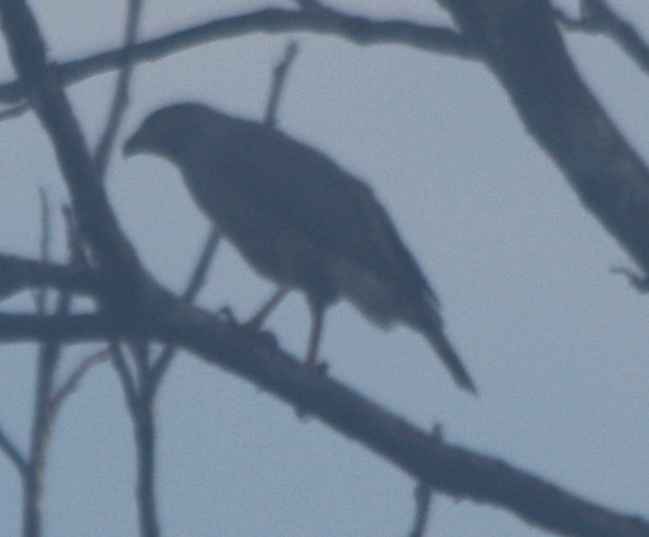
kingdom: Animalia
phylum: Chordata
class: Aves
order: Accipitriformes
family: Accipitridae
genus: Rupornis
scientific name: Rupornis magnirostris
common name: Roadside hawk
